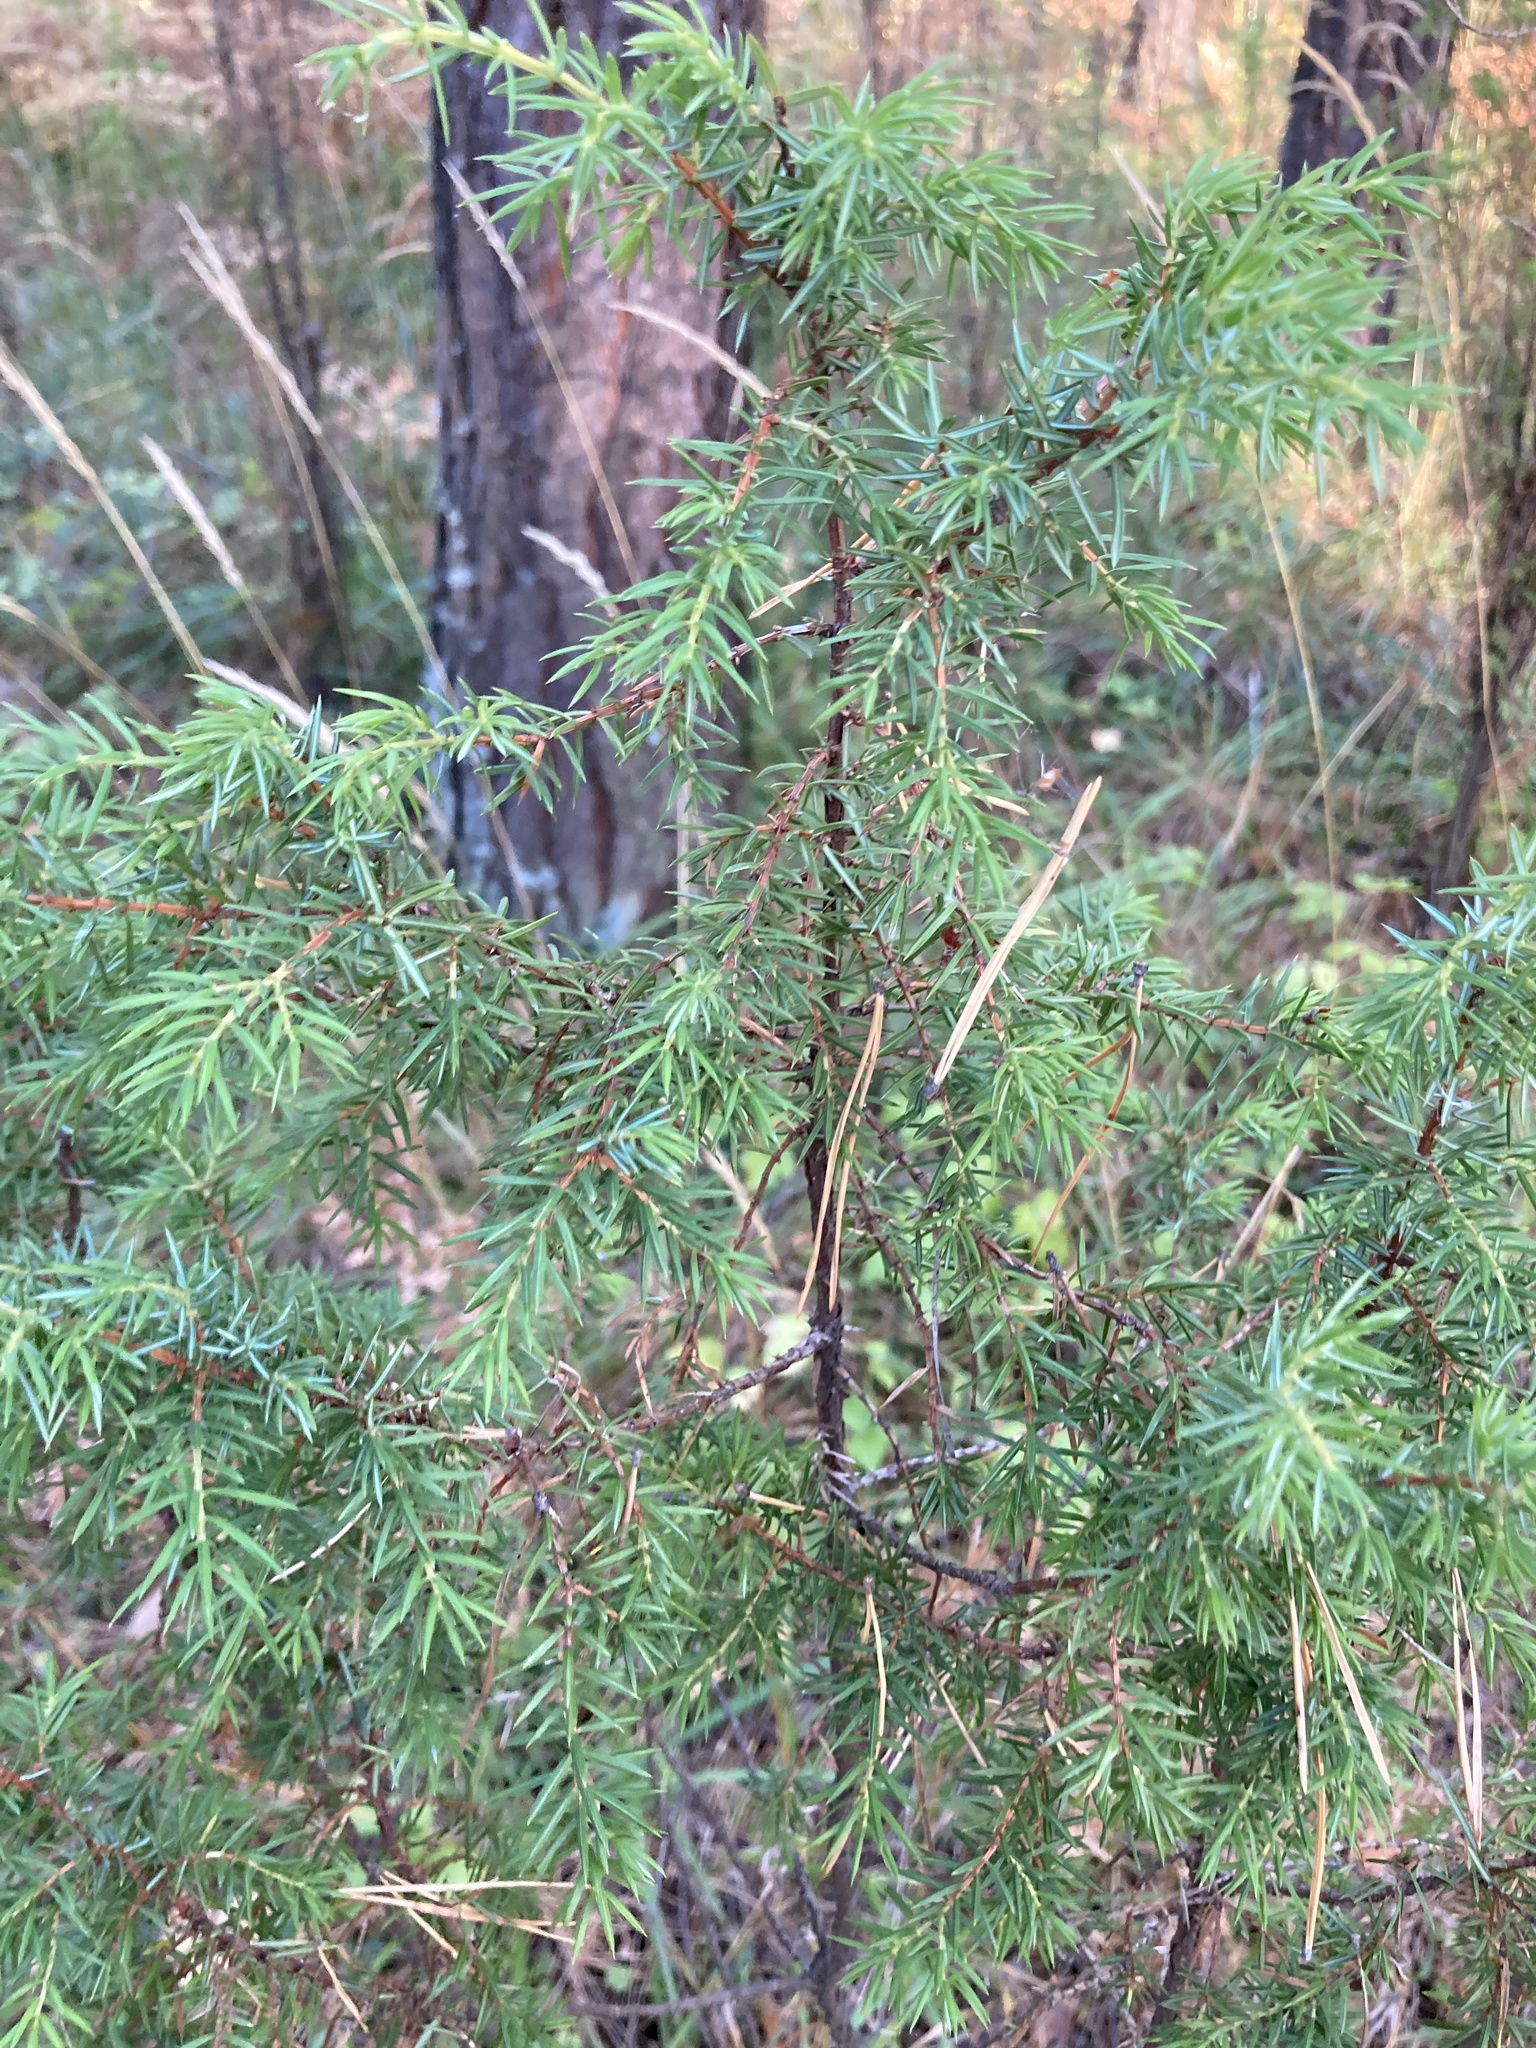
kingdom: Plantae
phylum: Tracheophyta
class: Pinopsida
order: Pinales
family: Cupressaceae
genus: Juniperus
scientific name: Juniperus communis
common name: Common juniper
